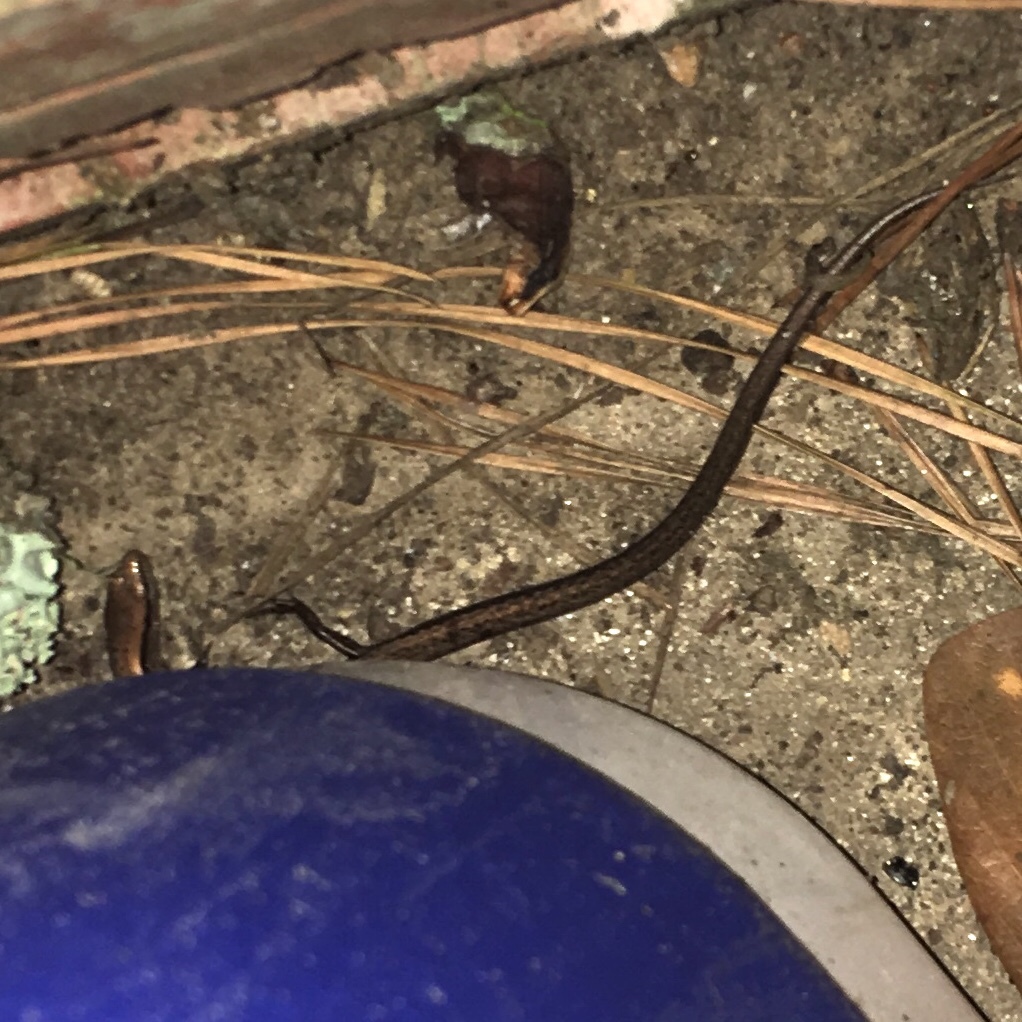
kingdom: Animalia
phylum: Chordata
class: Squamata
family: Scincidae
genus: Scincella
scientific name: Scincella lateralis
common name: Ground skink
